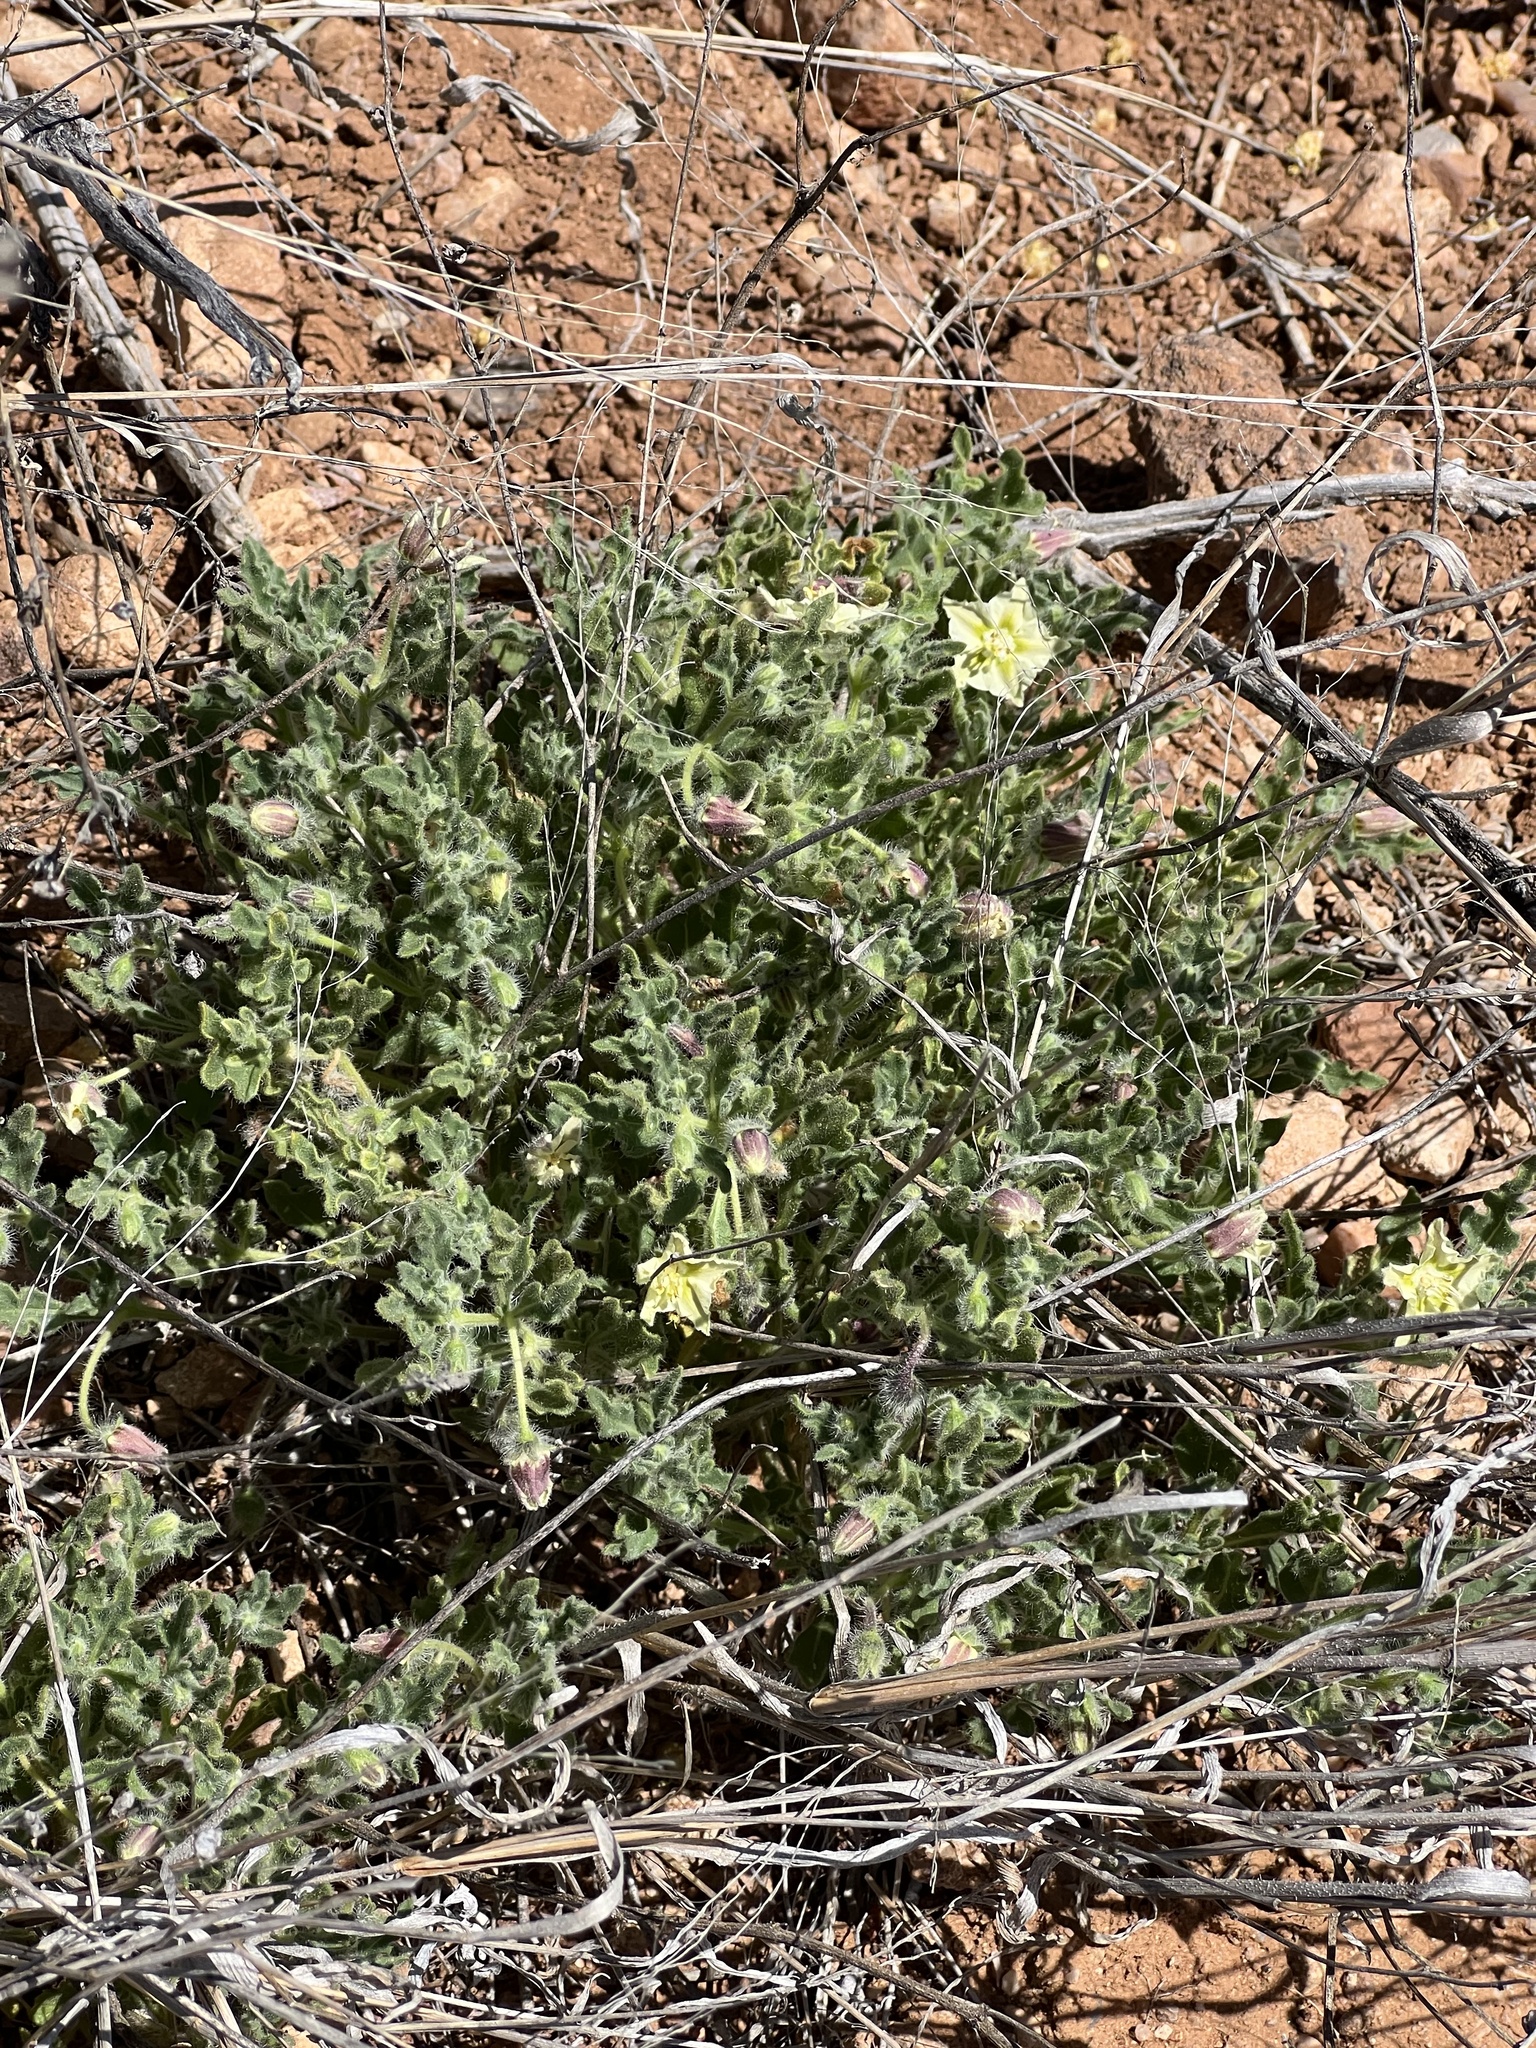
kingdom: Plantae
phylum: Tracheophyta
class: Magnoliopsida
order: Solanales
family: Solanaceae
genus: Chamaesaracha
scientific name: Chamaesaracha sordida
